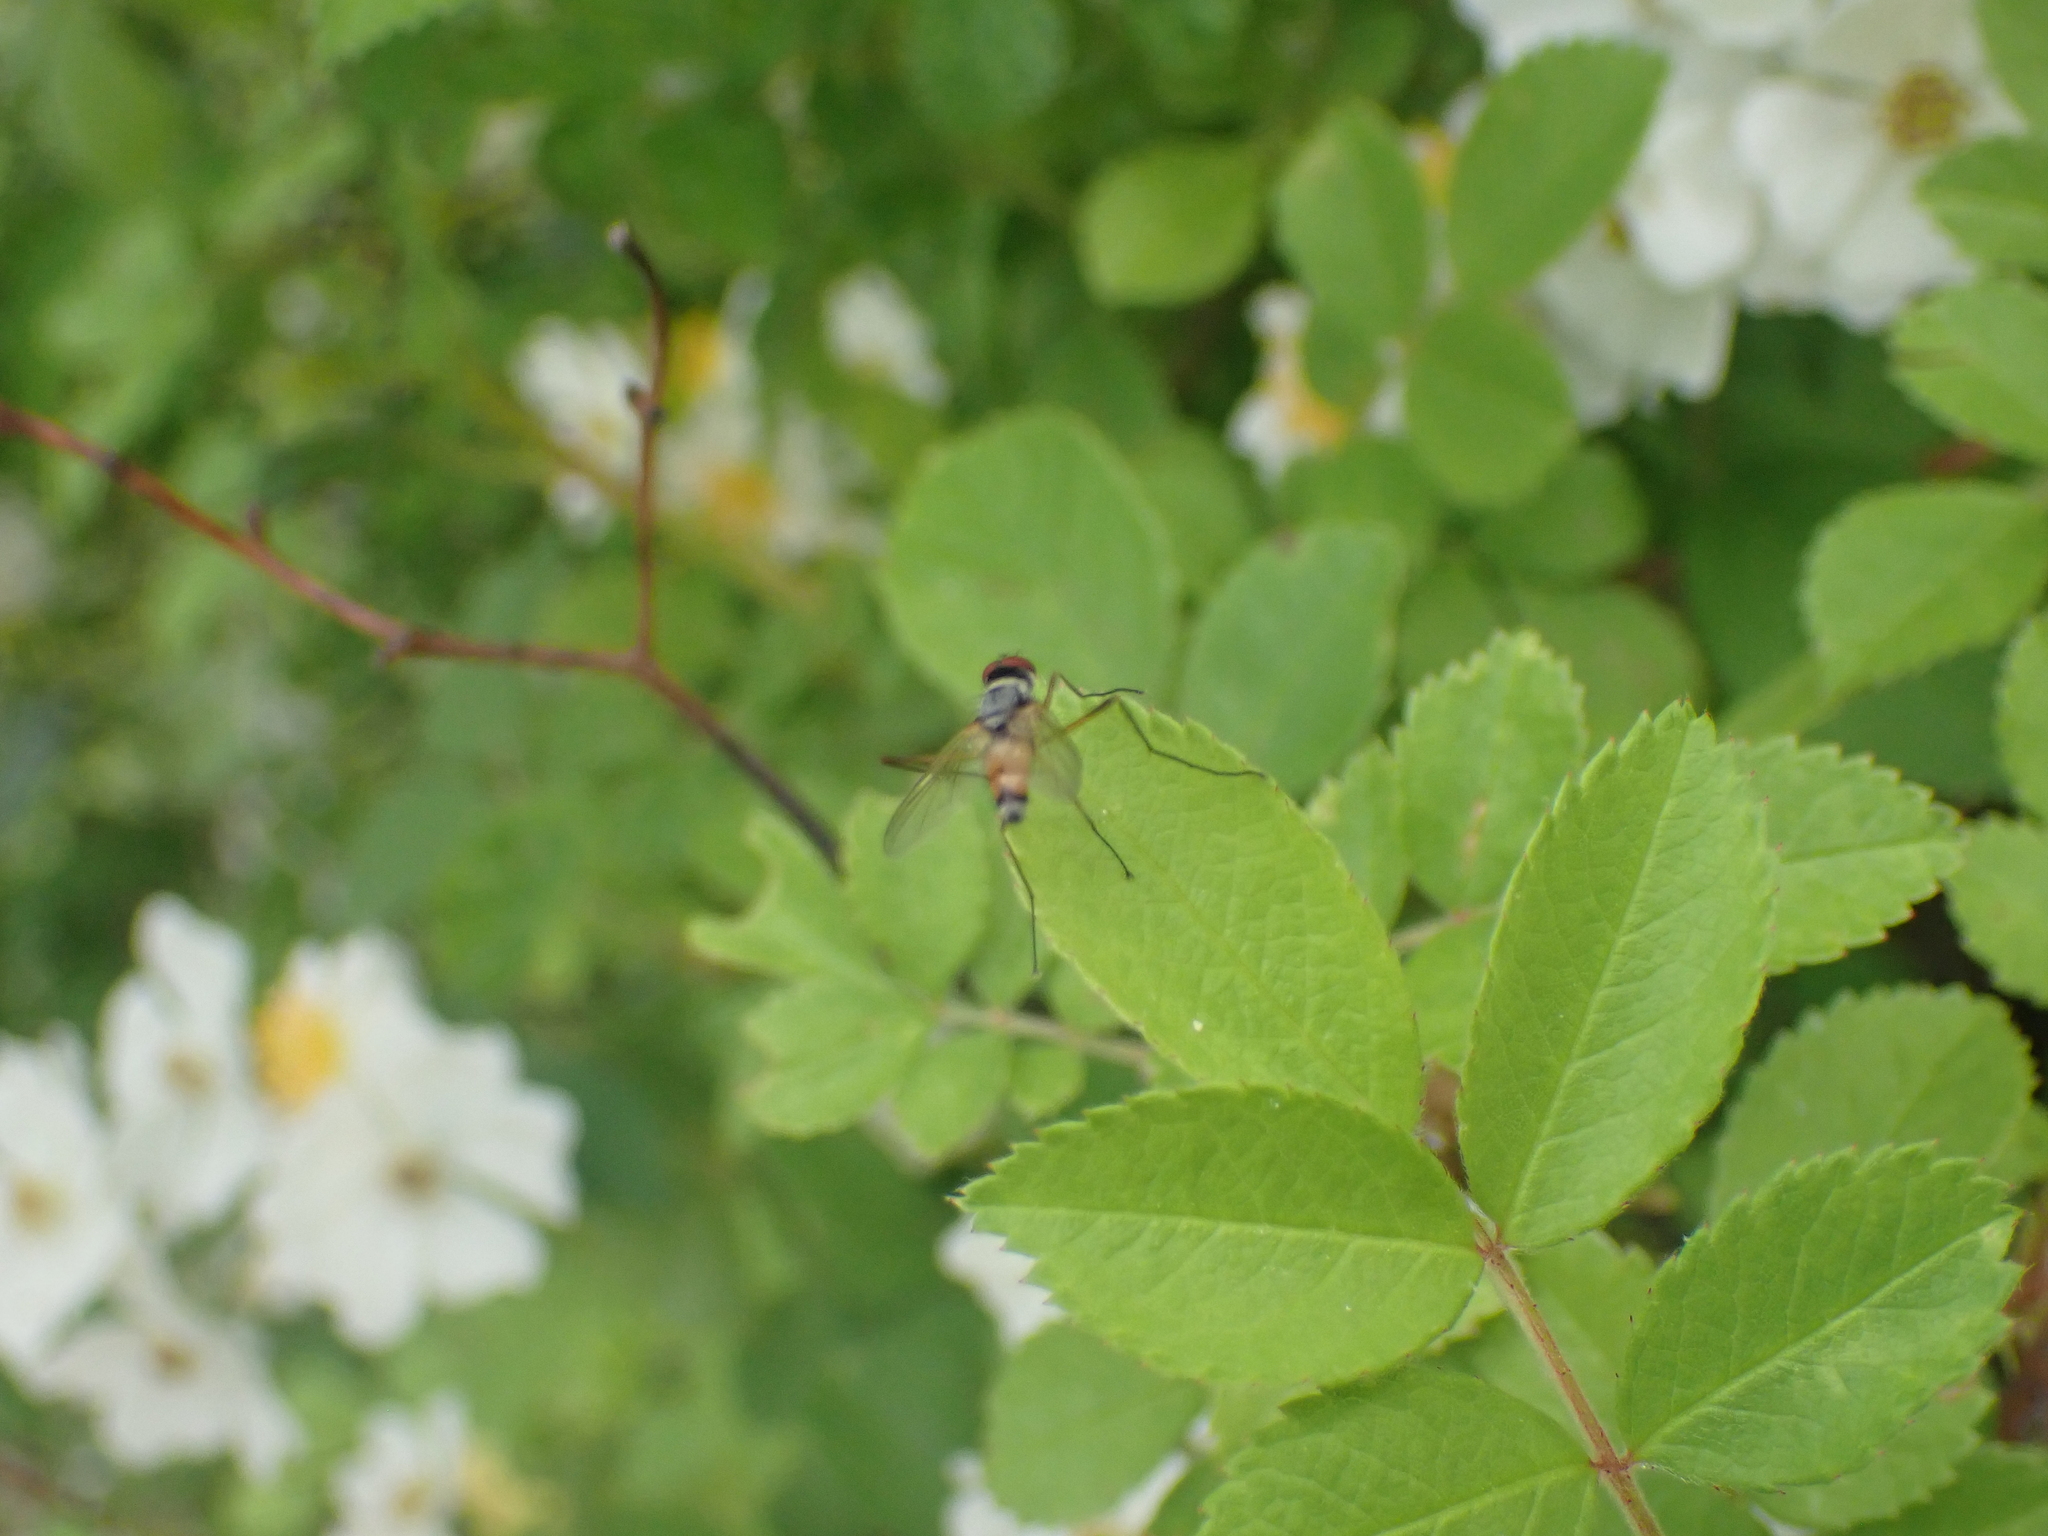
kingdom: Animalia
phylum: Arthropoda
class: Insecta
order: Diptera
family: Tachinidae
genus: Cholomyia
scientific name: Cholomyia inaequipes
